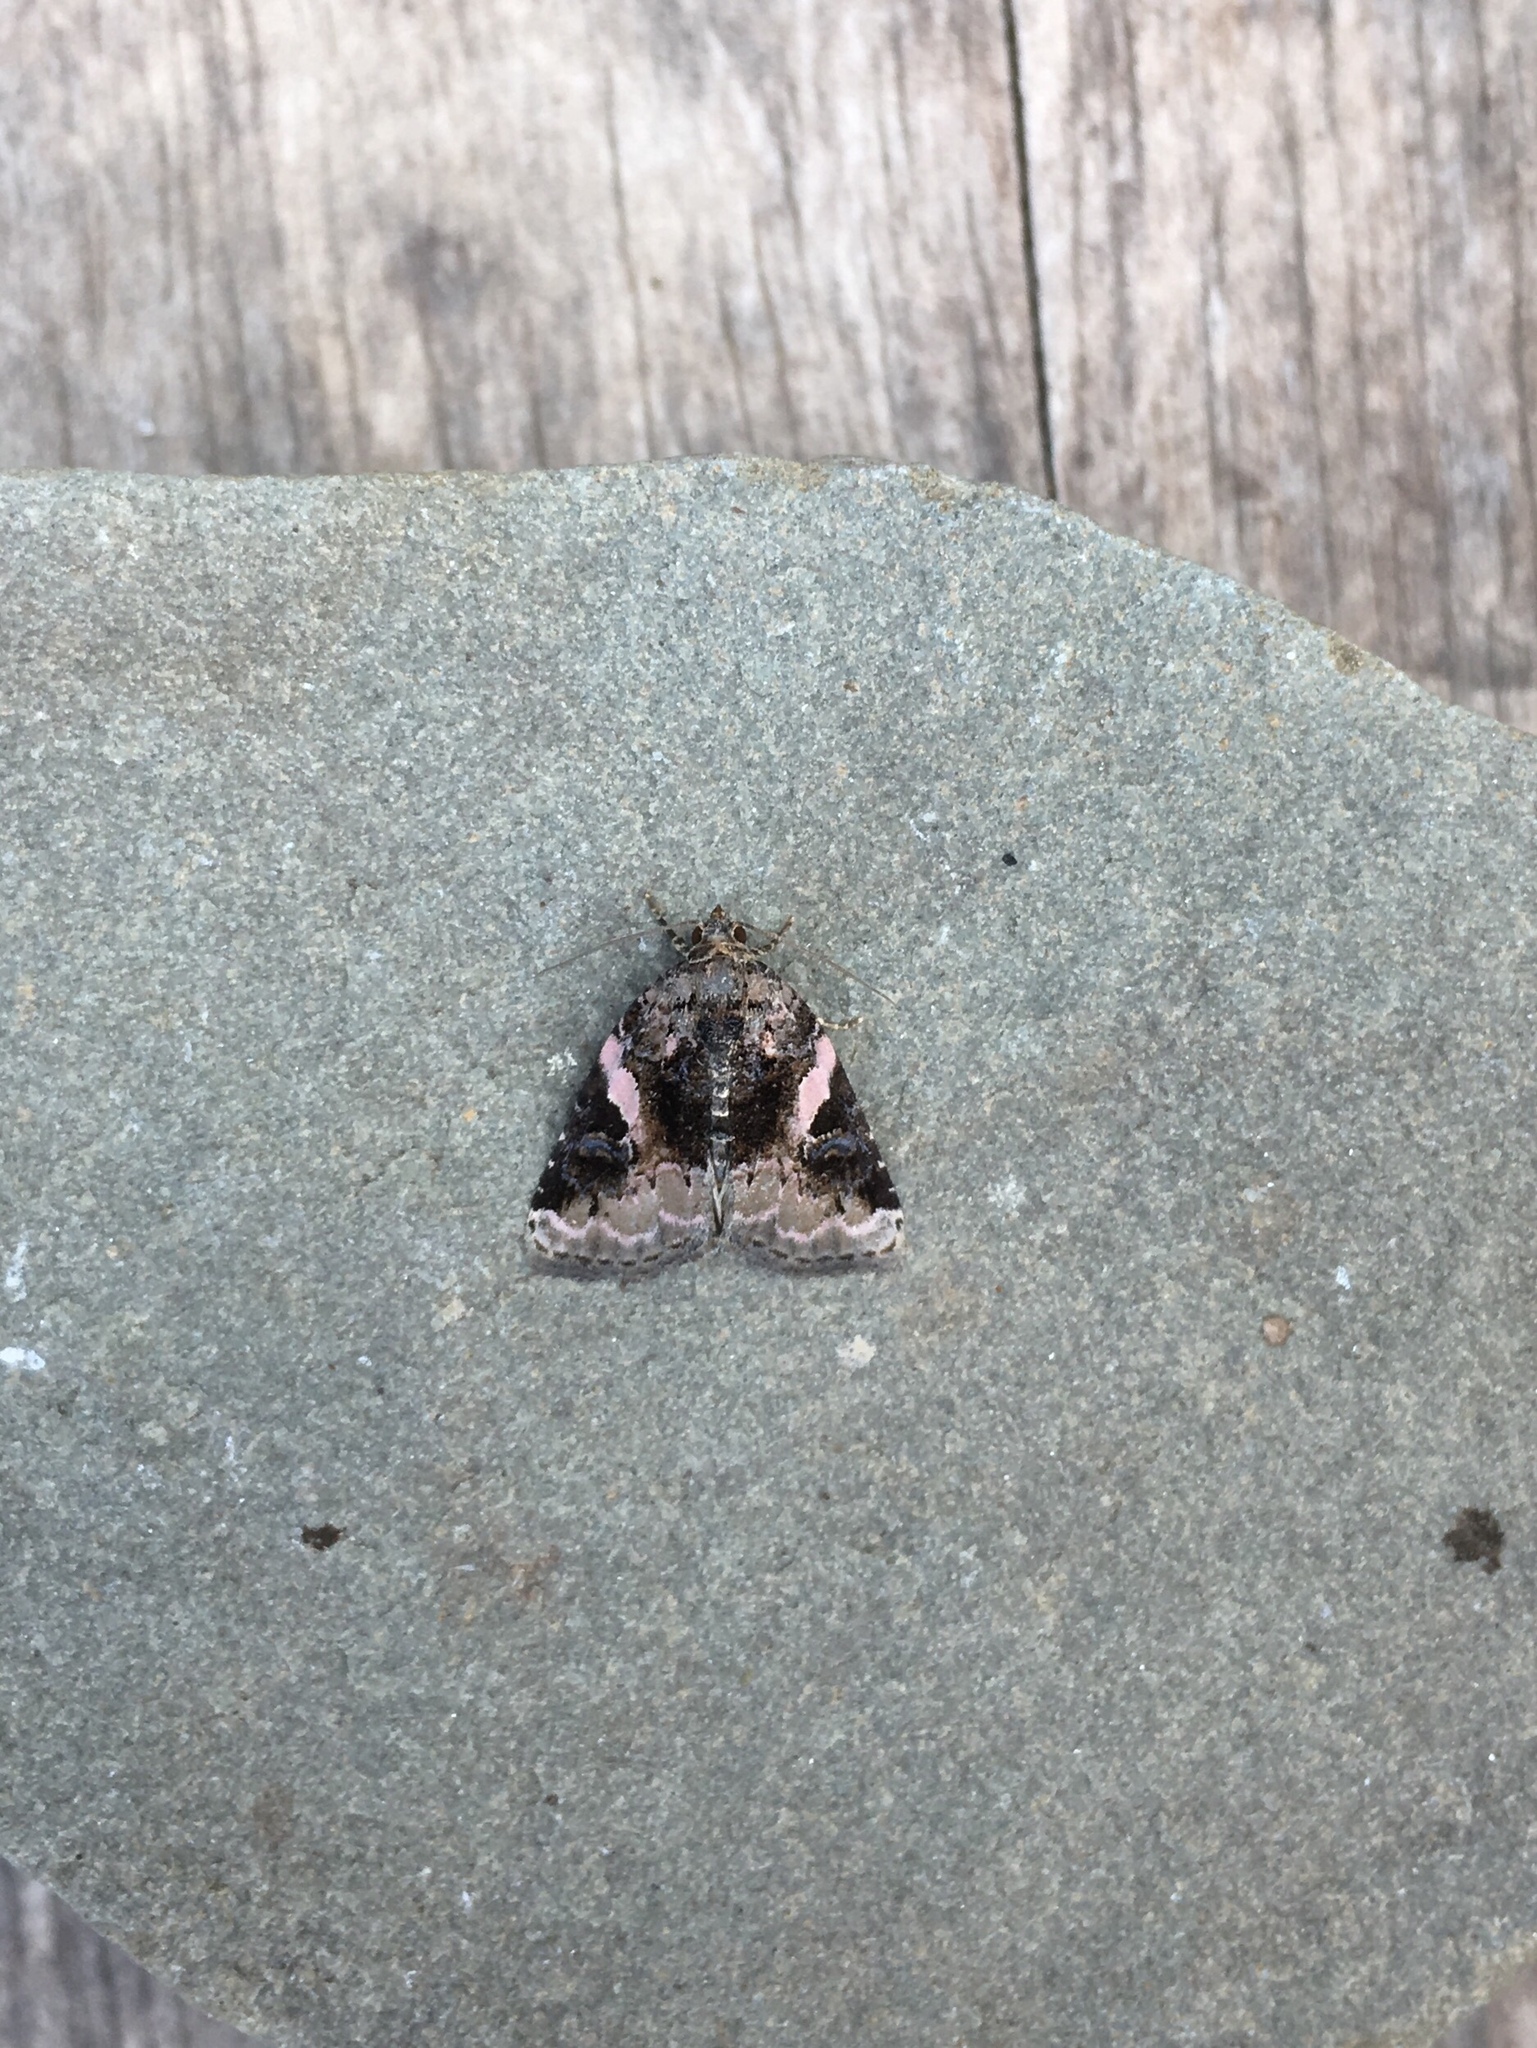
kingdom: Animalia
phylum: Arthropoda
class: Insecta
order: Lepidoptera
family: Noctuidae
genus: Pseudeustrotia
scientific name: Pseudeustrotia carneola
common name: Pink-barred lithacodia moth
